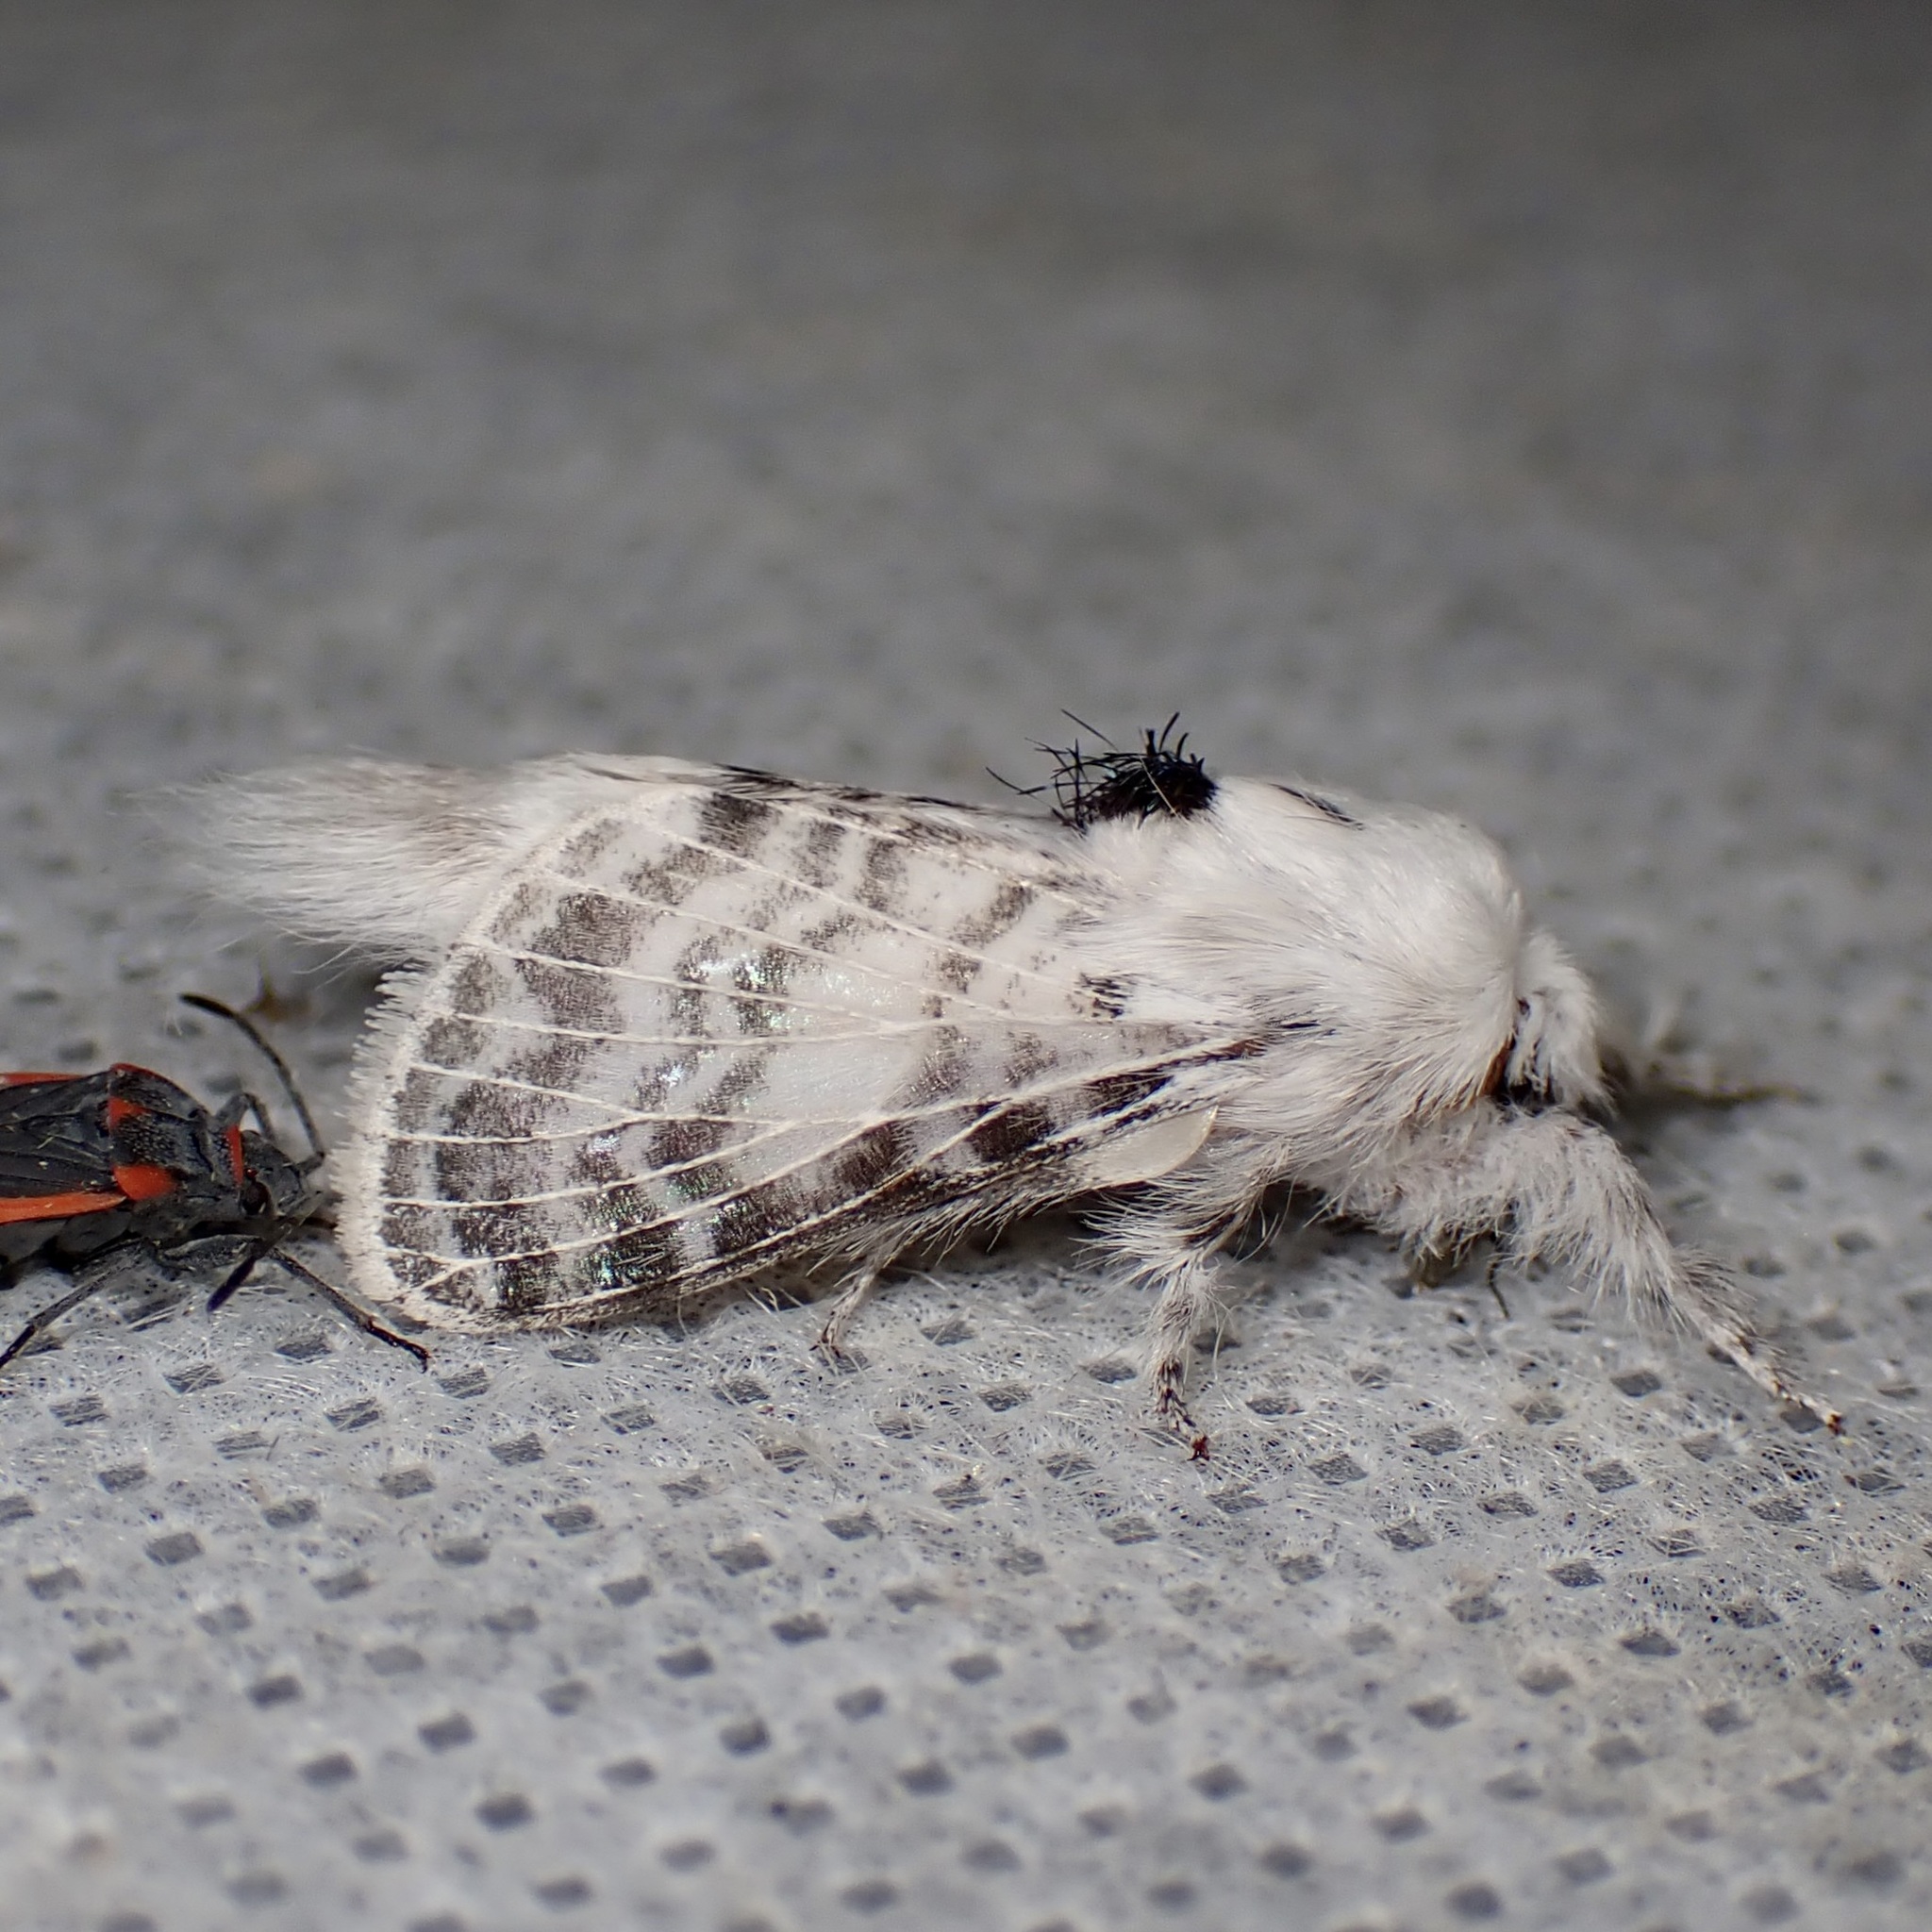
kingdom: Animalia
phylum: Arthropoda
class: Insecta
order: Lepidoptera
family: Lasiocampidae
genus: Apotolype
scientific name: Apotolype brevicrista
